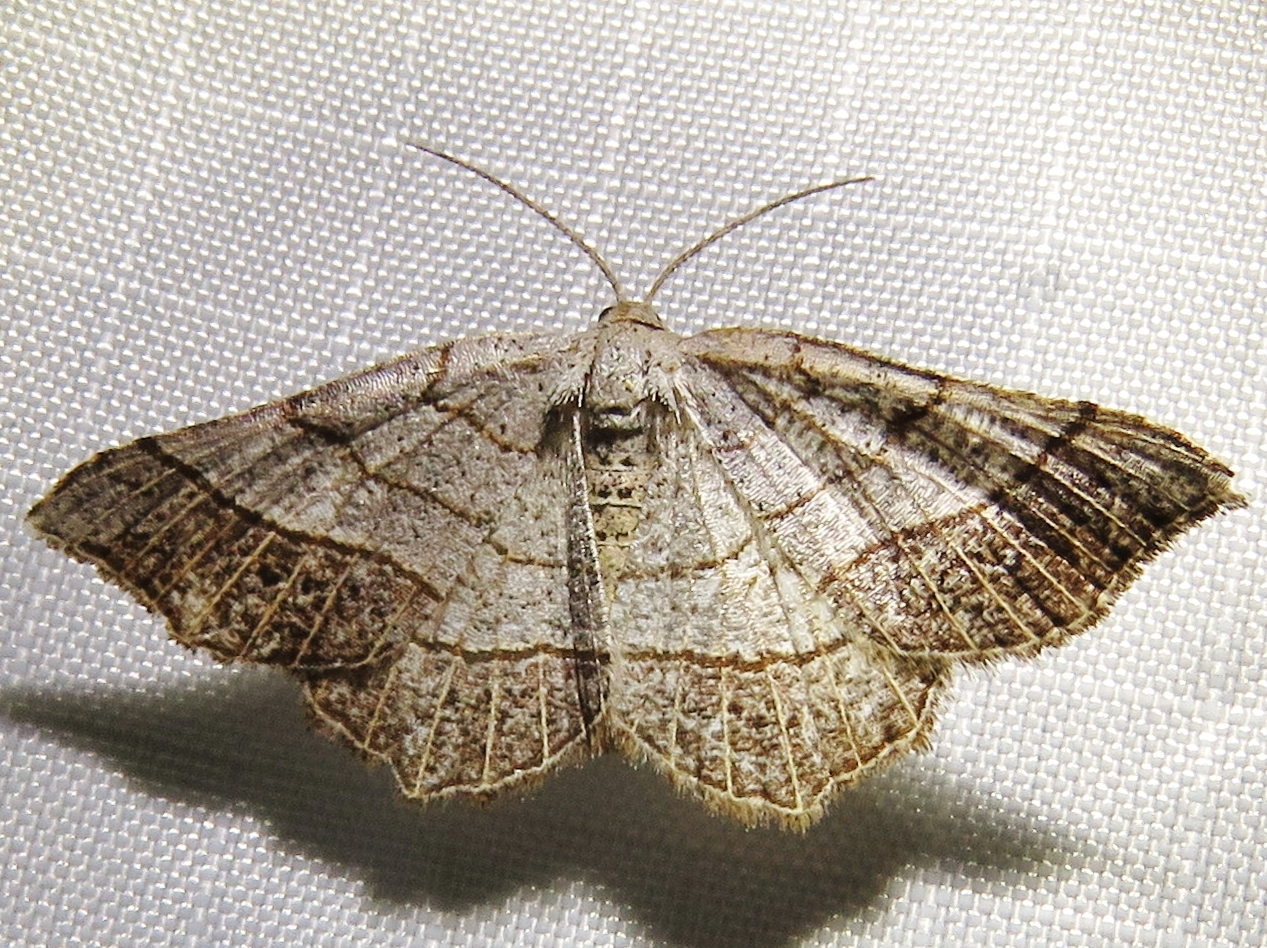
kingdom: Animalia
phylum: Arthropoda
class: Insecta
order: Lepidoptera
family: Geometridae
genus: Eumacaria
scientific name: Eumacaria madopata
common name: Brown-bordered geometer
